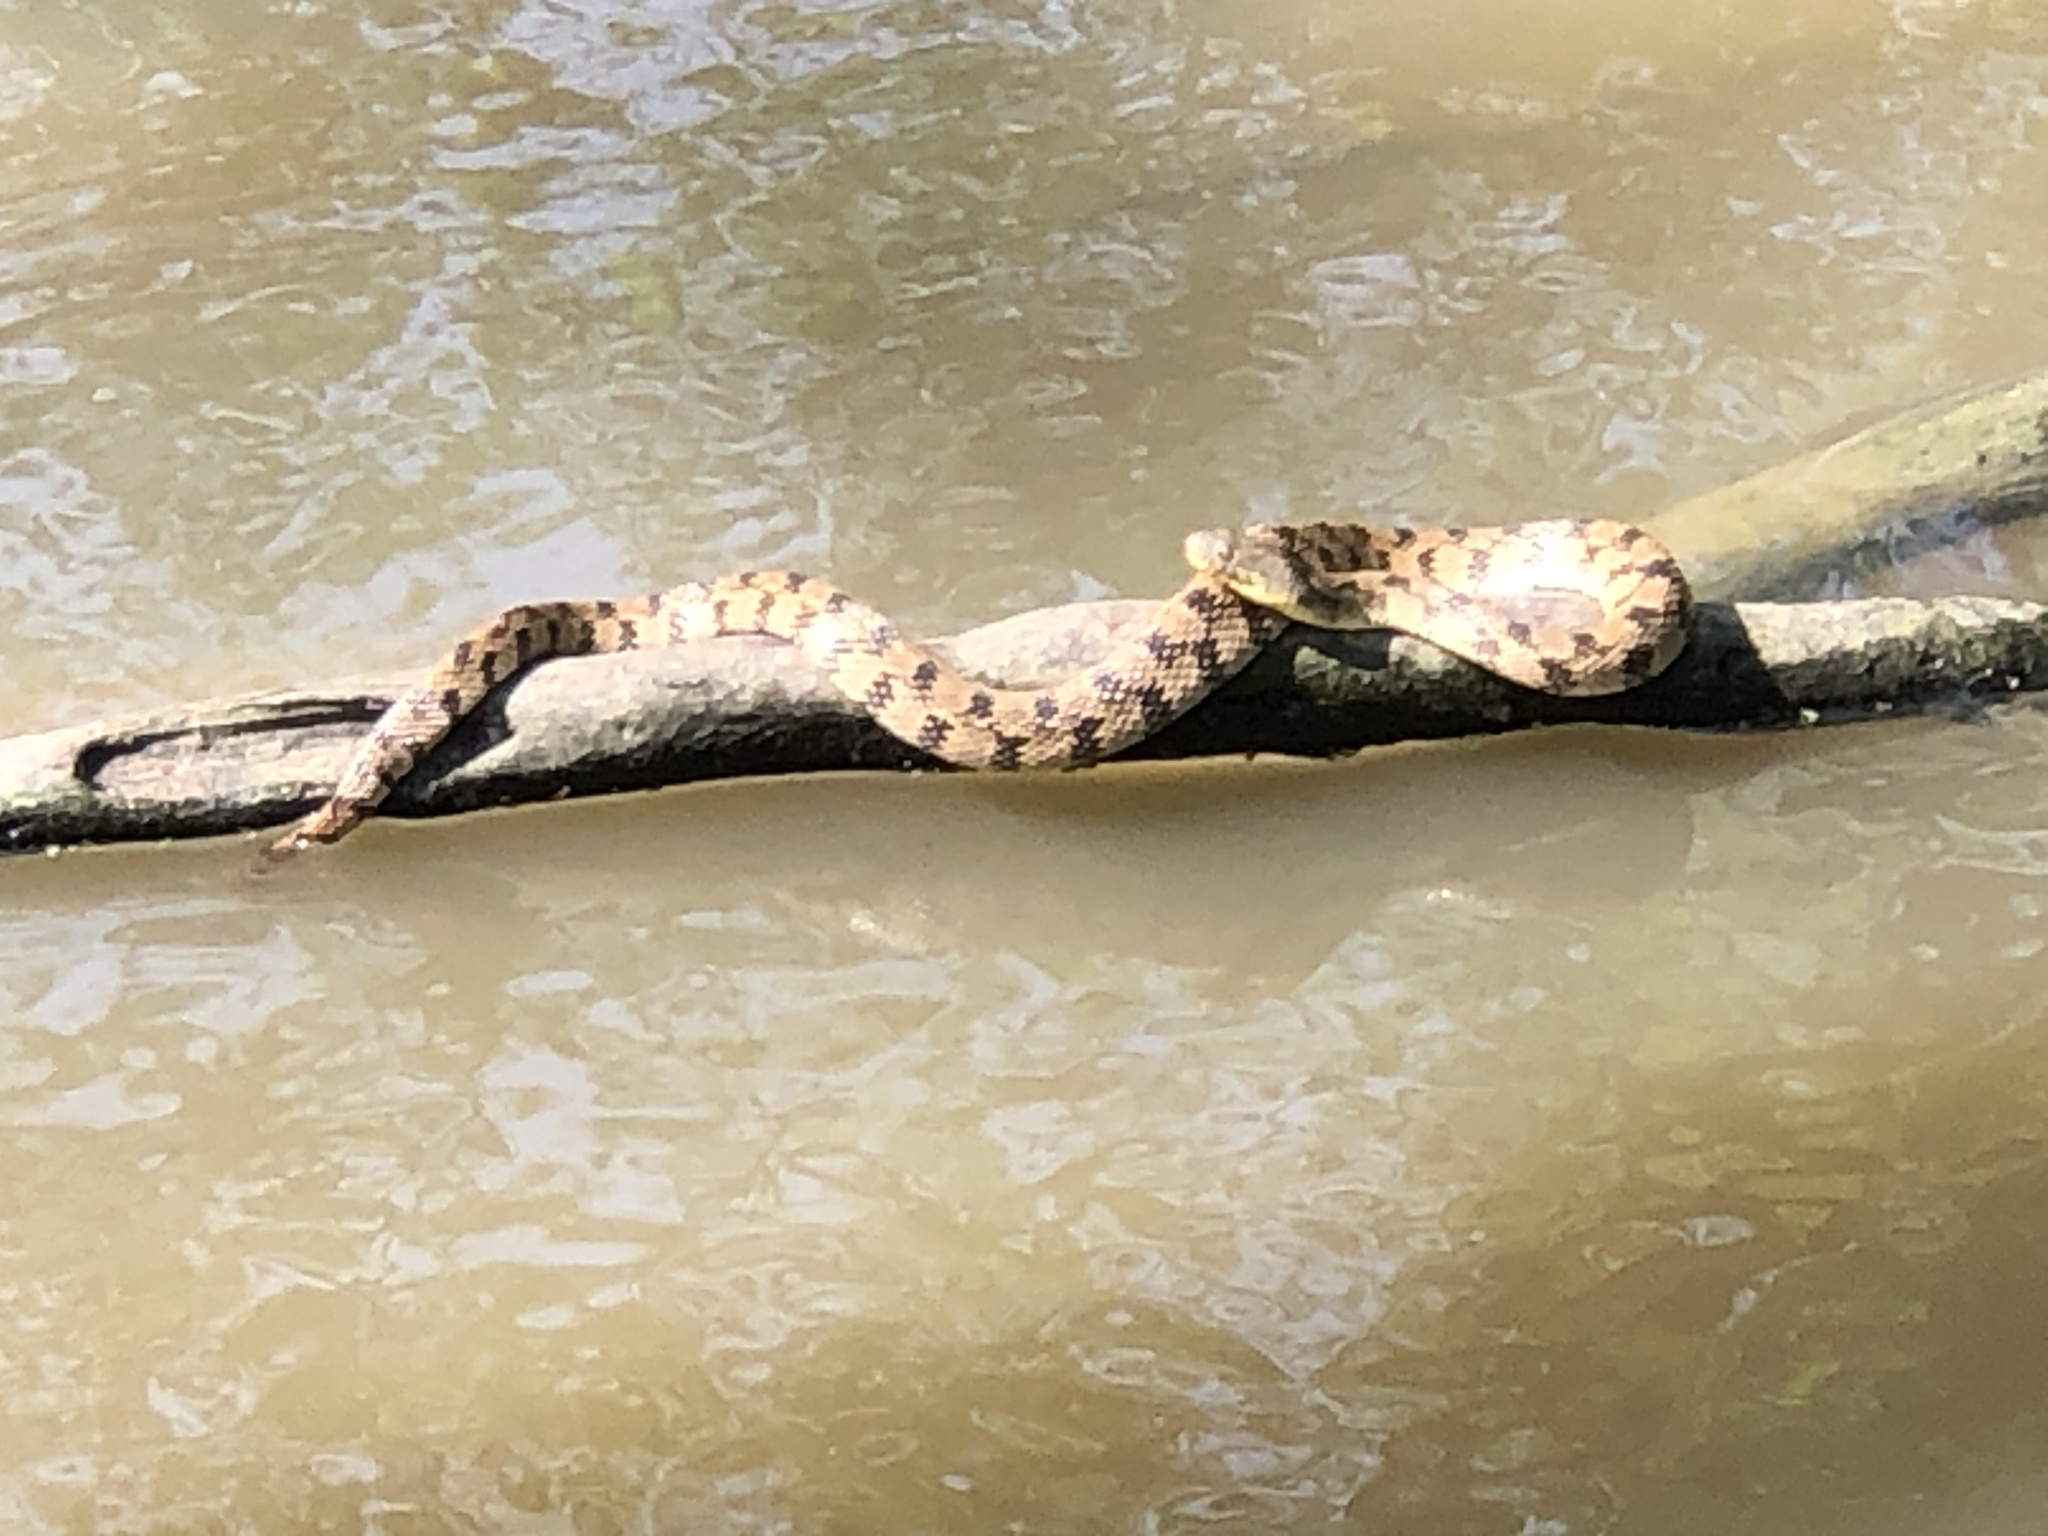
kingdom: Animalia
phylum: Chordata
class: Squamata
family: Colubridae
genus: Nerodia
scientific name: Nerodia rhombifer
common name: Diamondback water snake
